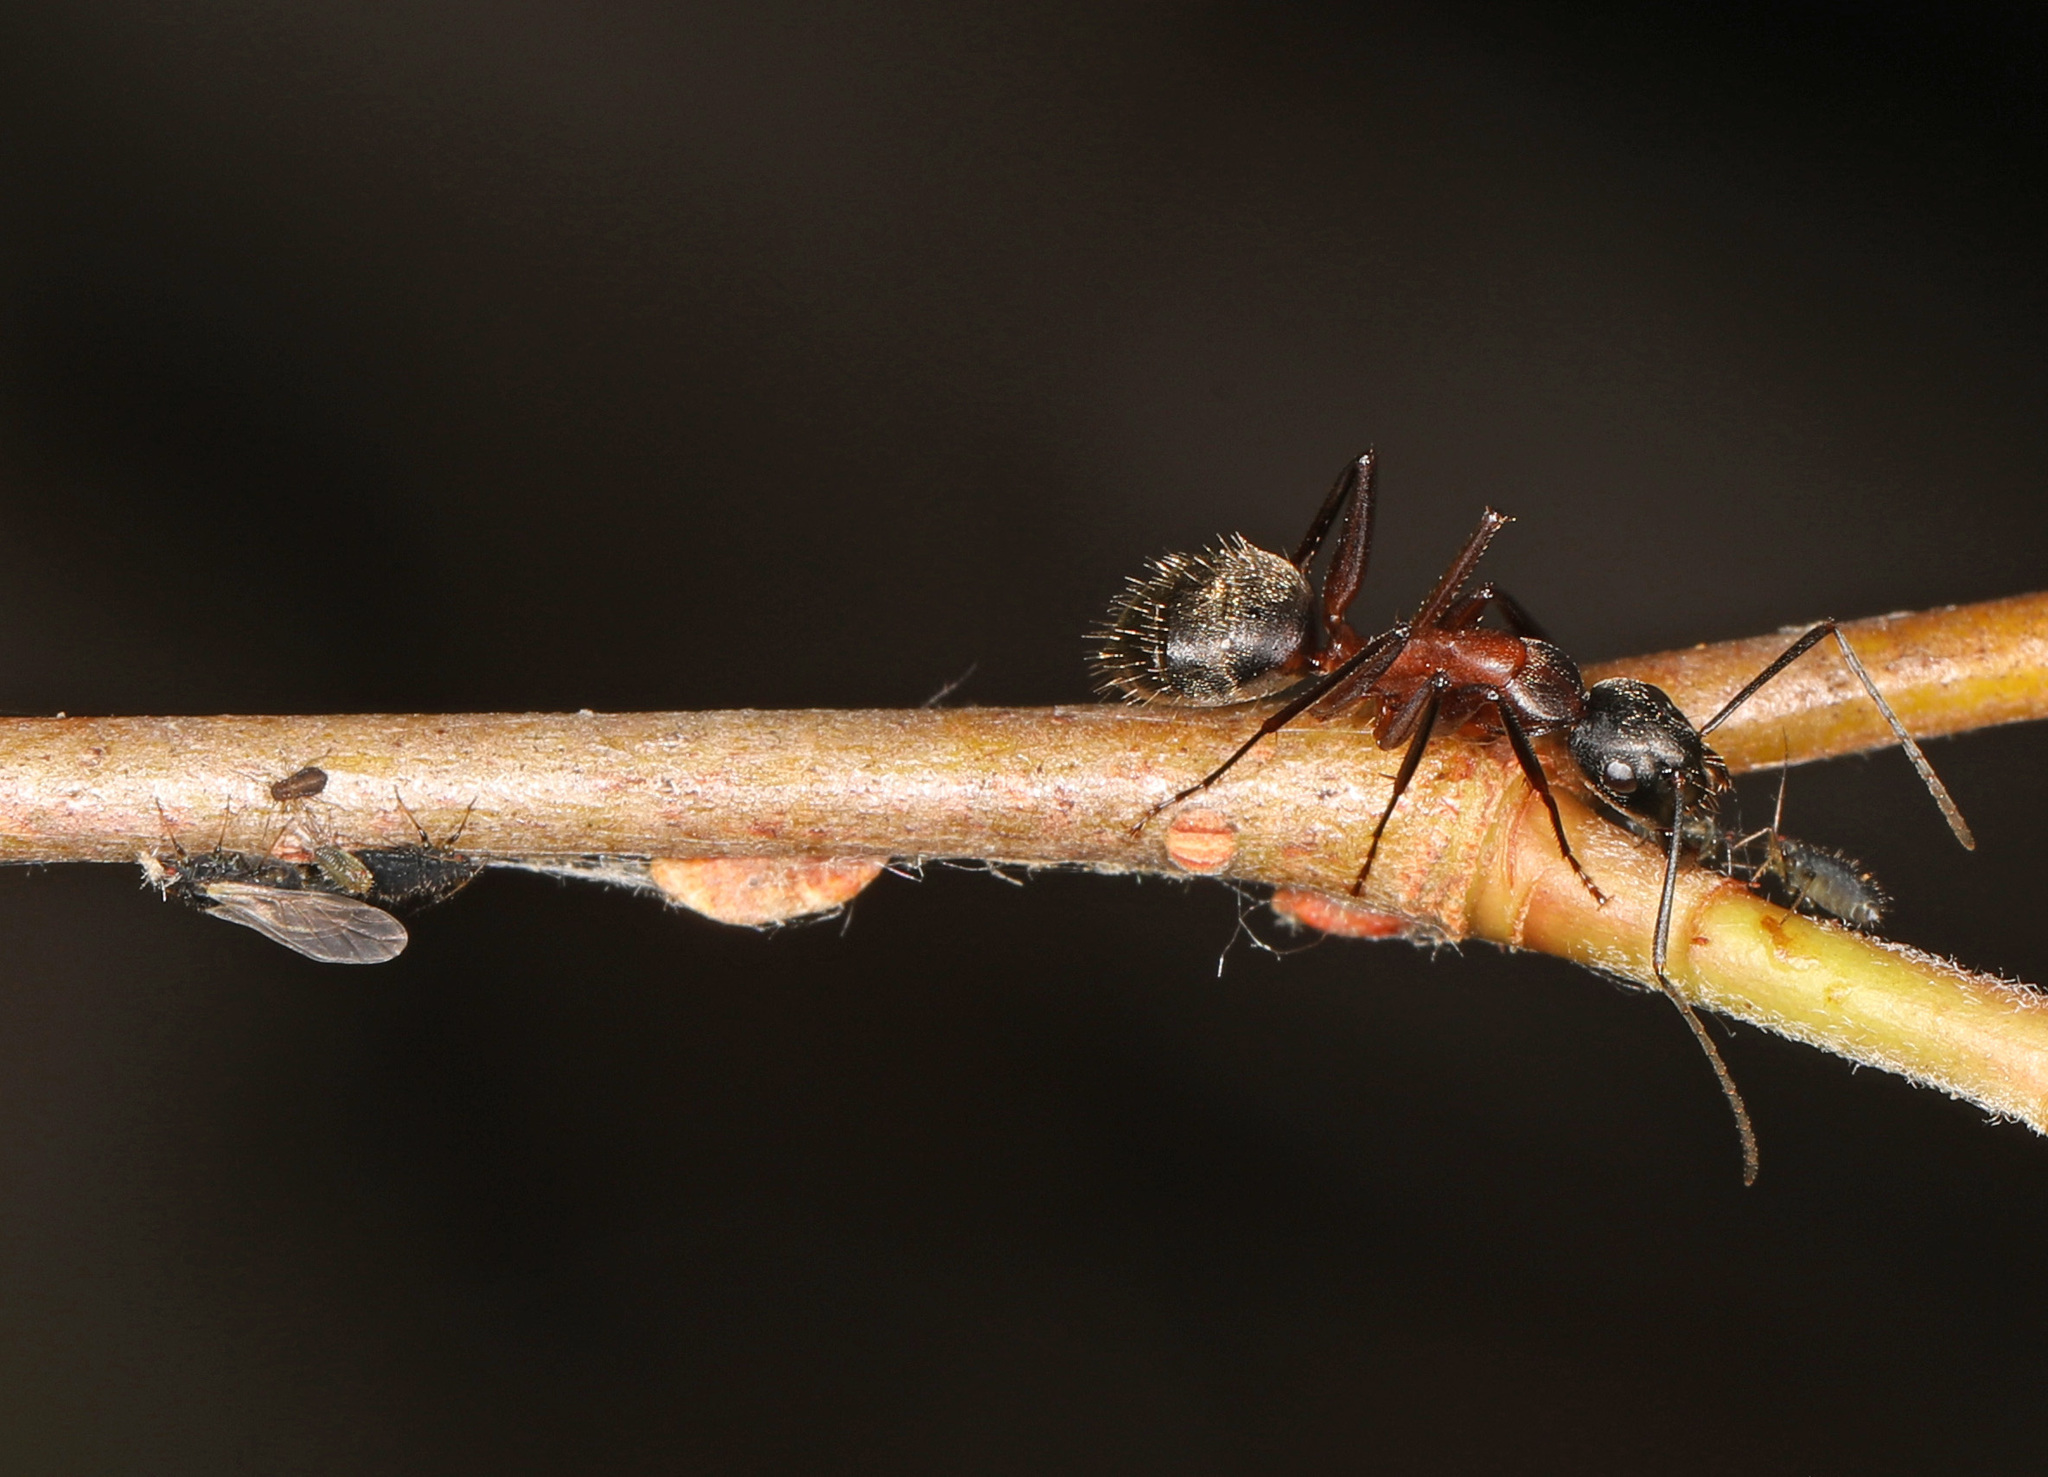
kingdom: Animalia
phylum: Arthropoda
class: Insecta
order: Hymenoptera
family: Formicidae
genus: Camponotus
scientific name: Camponotus chromaiodes
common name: Red carpenter ant
